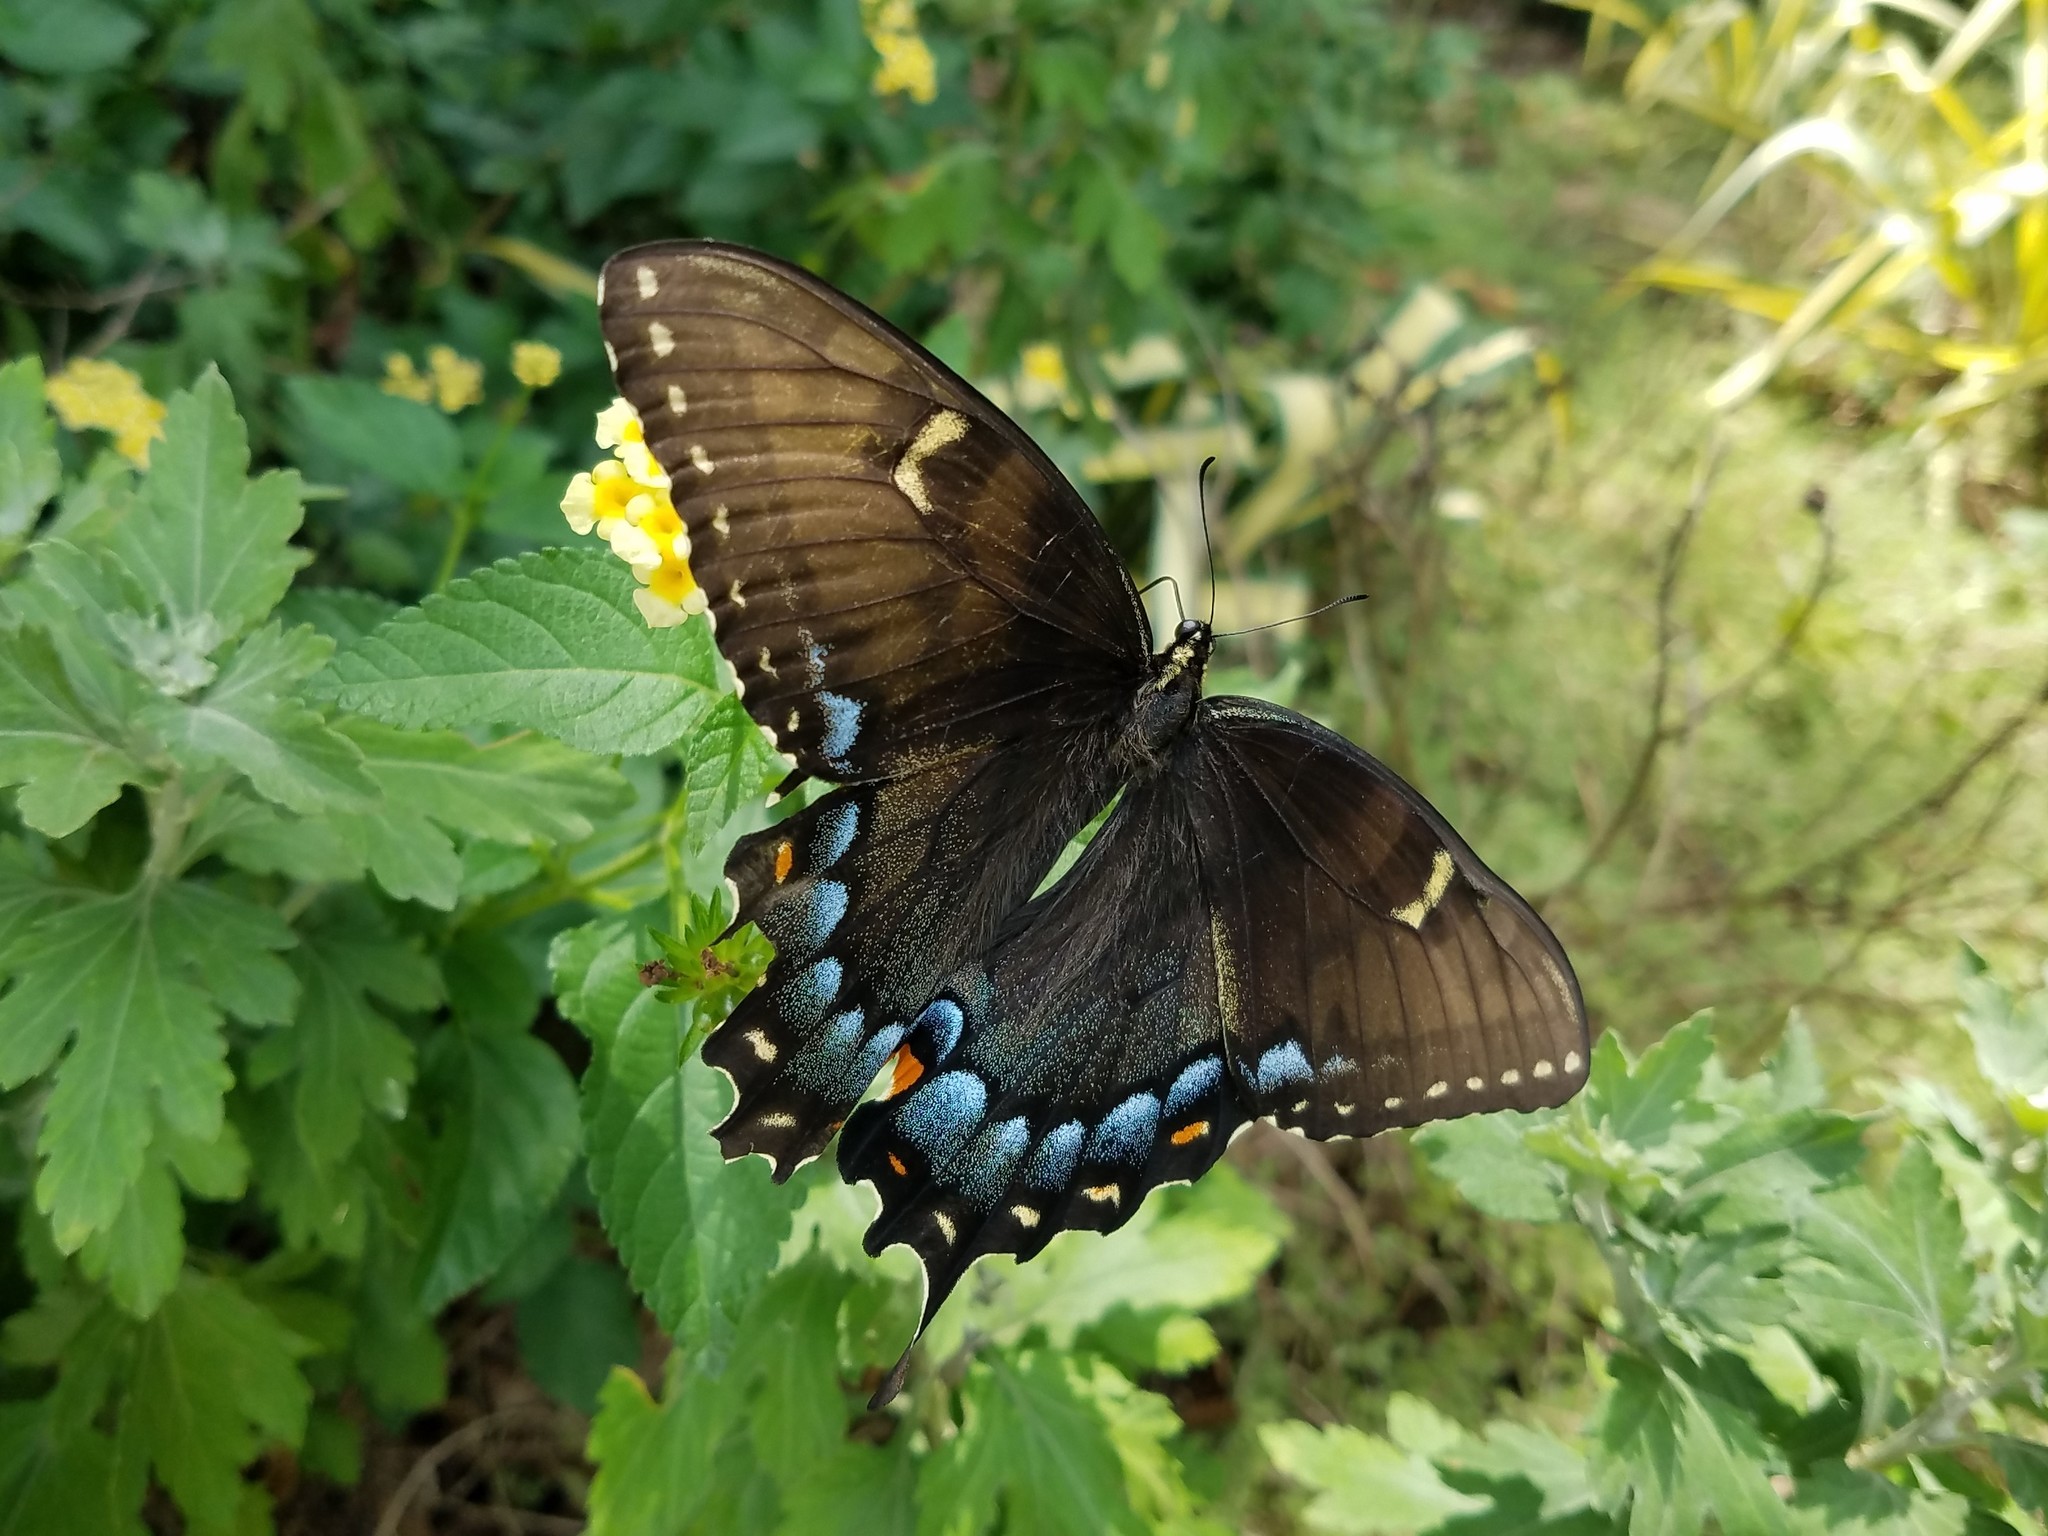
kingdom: Animalia
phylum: Arthropoda
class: Insecta
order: Lepidoptera
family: Papilionidae
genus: Papilio
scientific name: Papilio glaucus
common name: Tiger swallowtail
